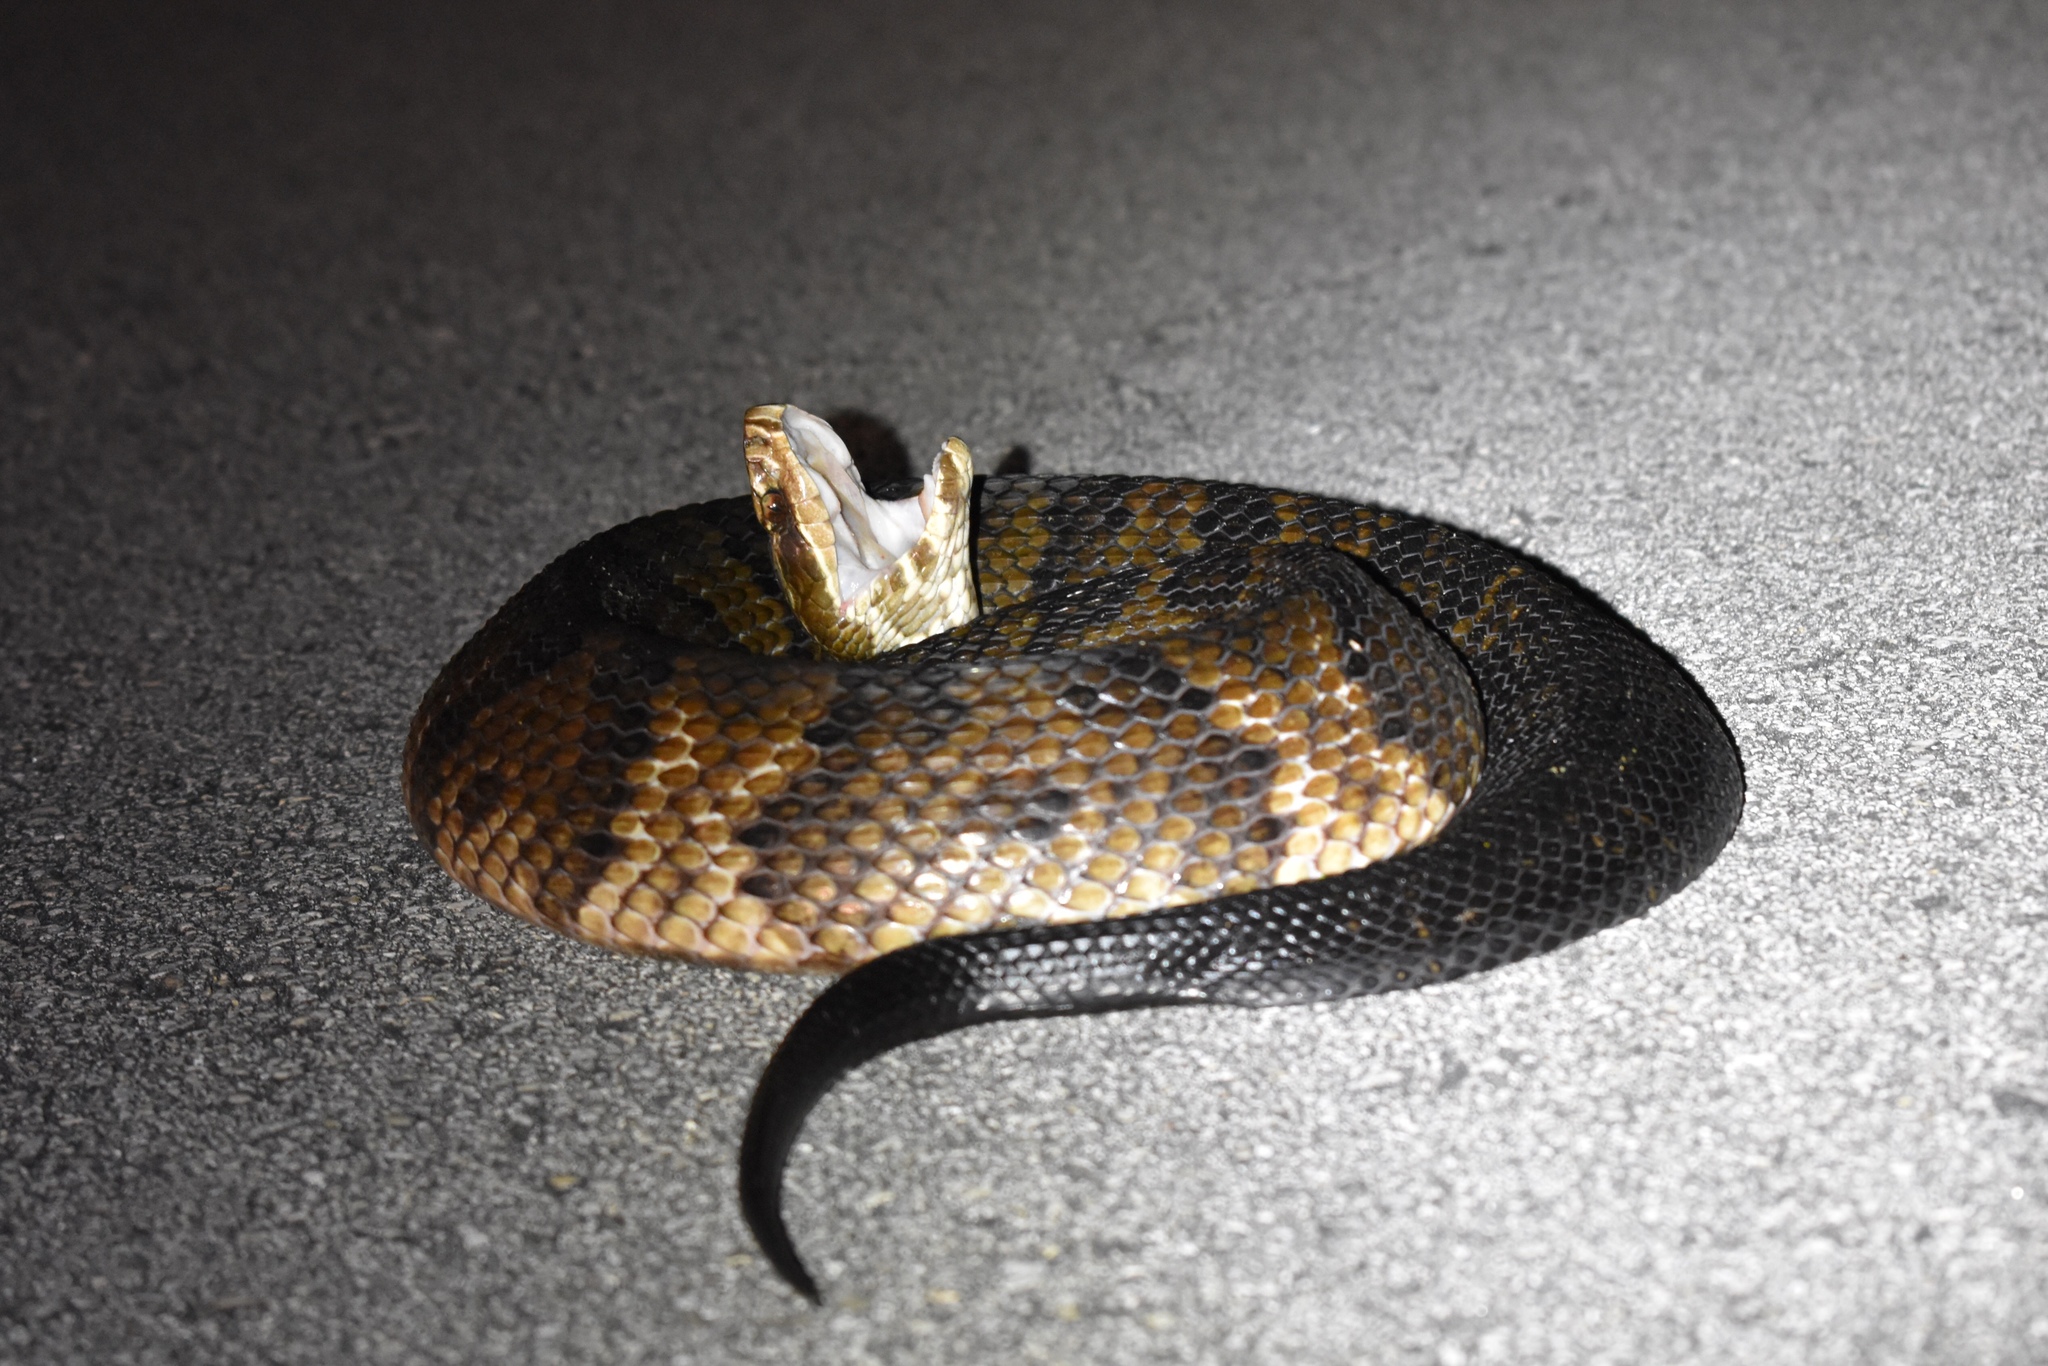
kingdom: Animalia
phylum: Chordata
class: Squamata
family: Viperidae
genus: Agkistrodon
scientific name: Agkistrodon conanti
